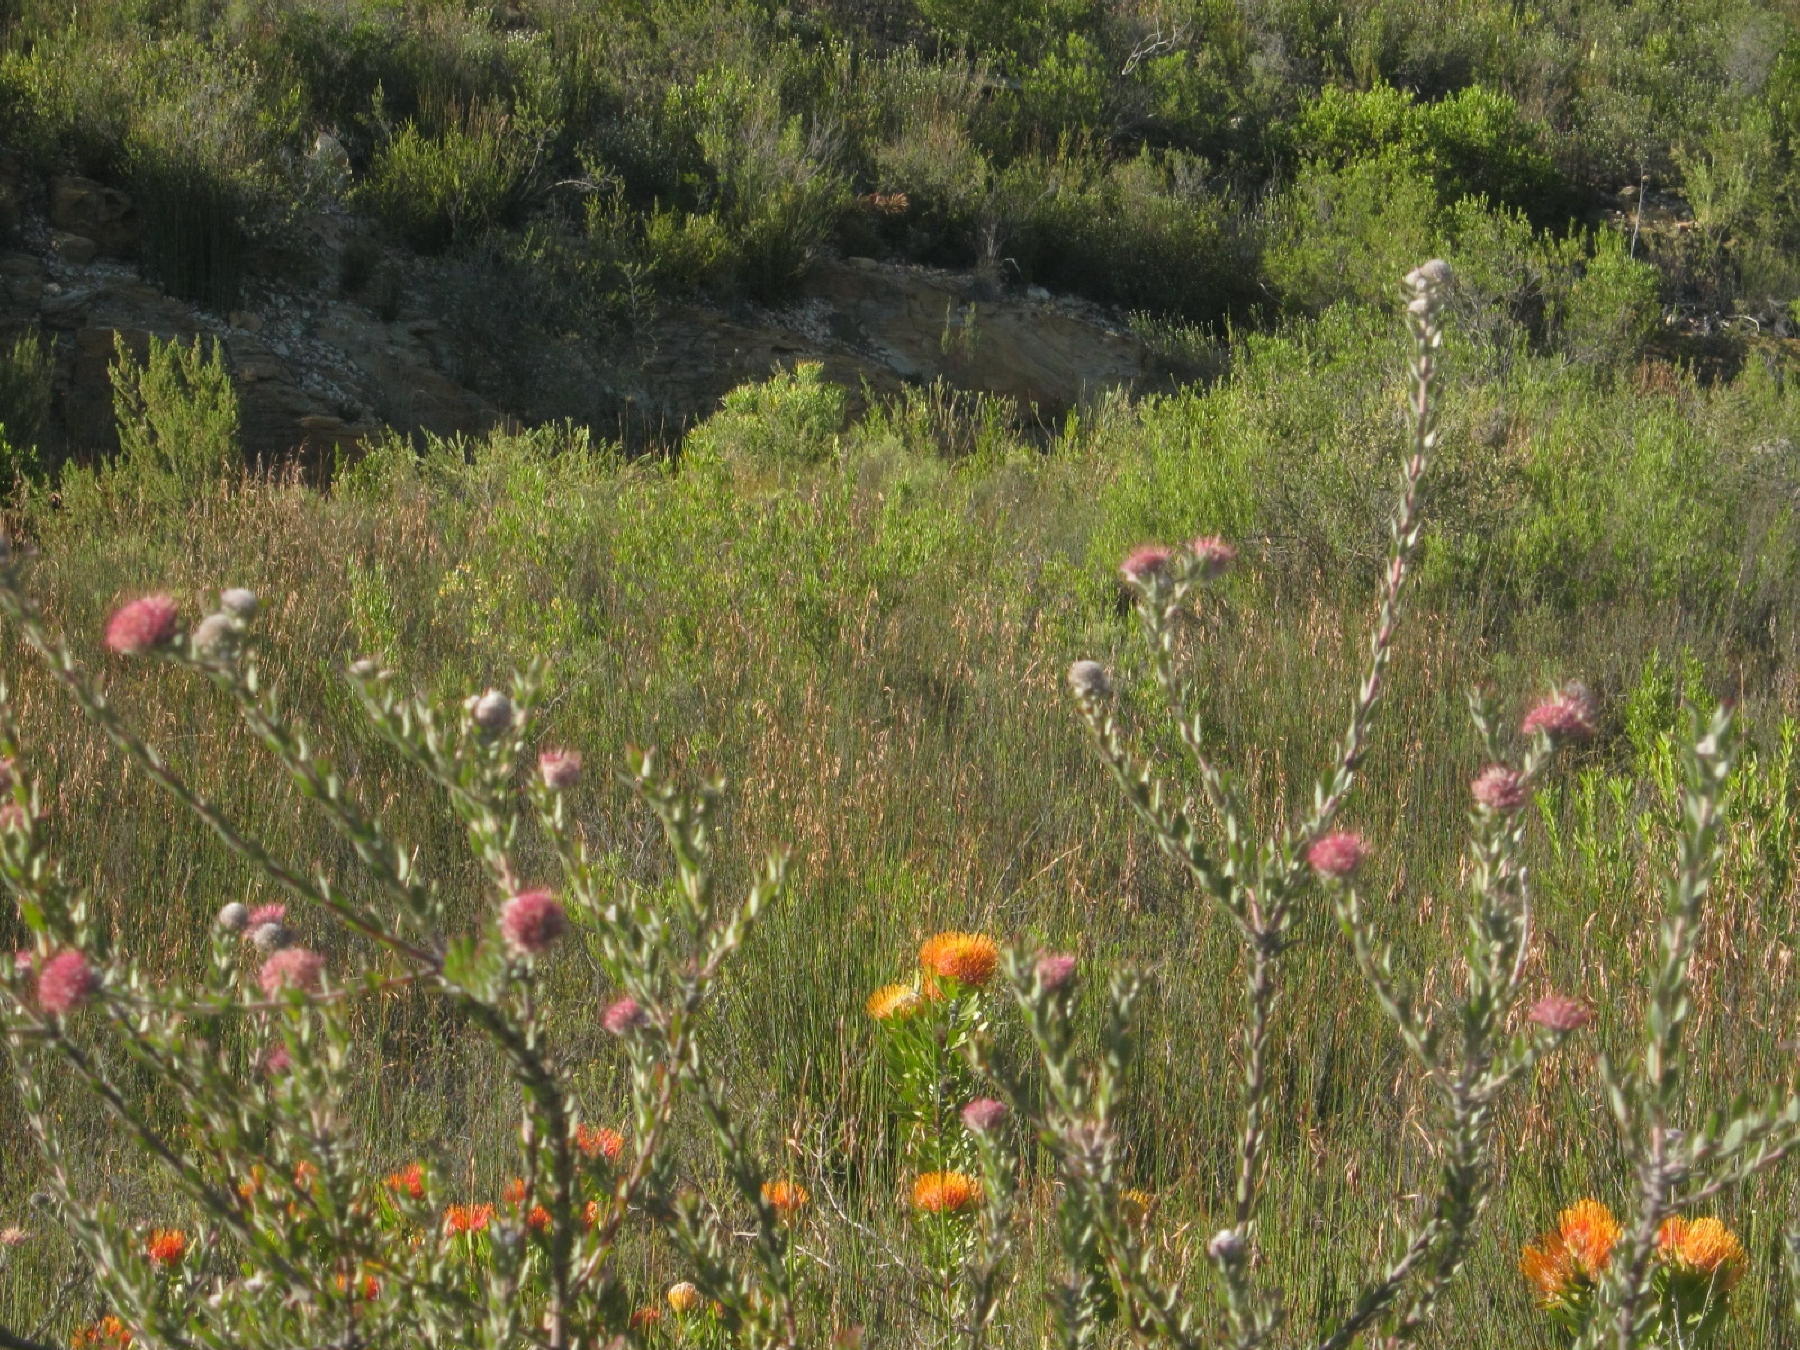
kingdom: Plantae
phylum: Tracheophyta
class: Magnoliopsida
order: Proteales
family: Proteaceae
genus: Leucospermum
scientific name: Leucospermum calligerum
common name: Arid pincushion
